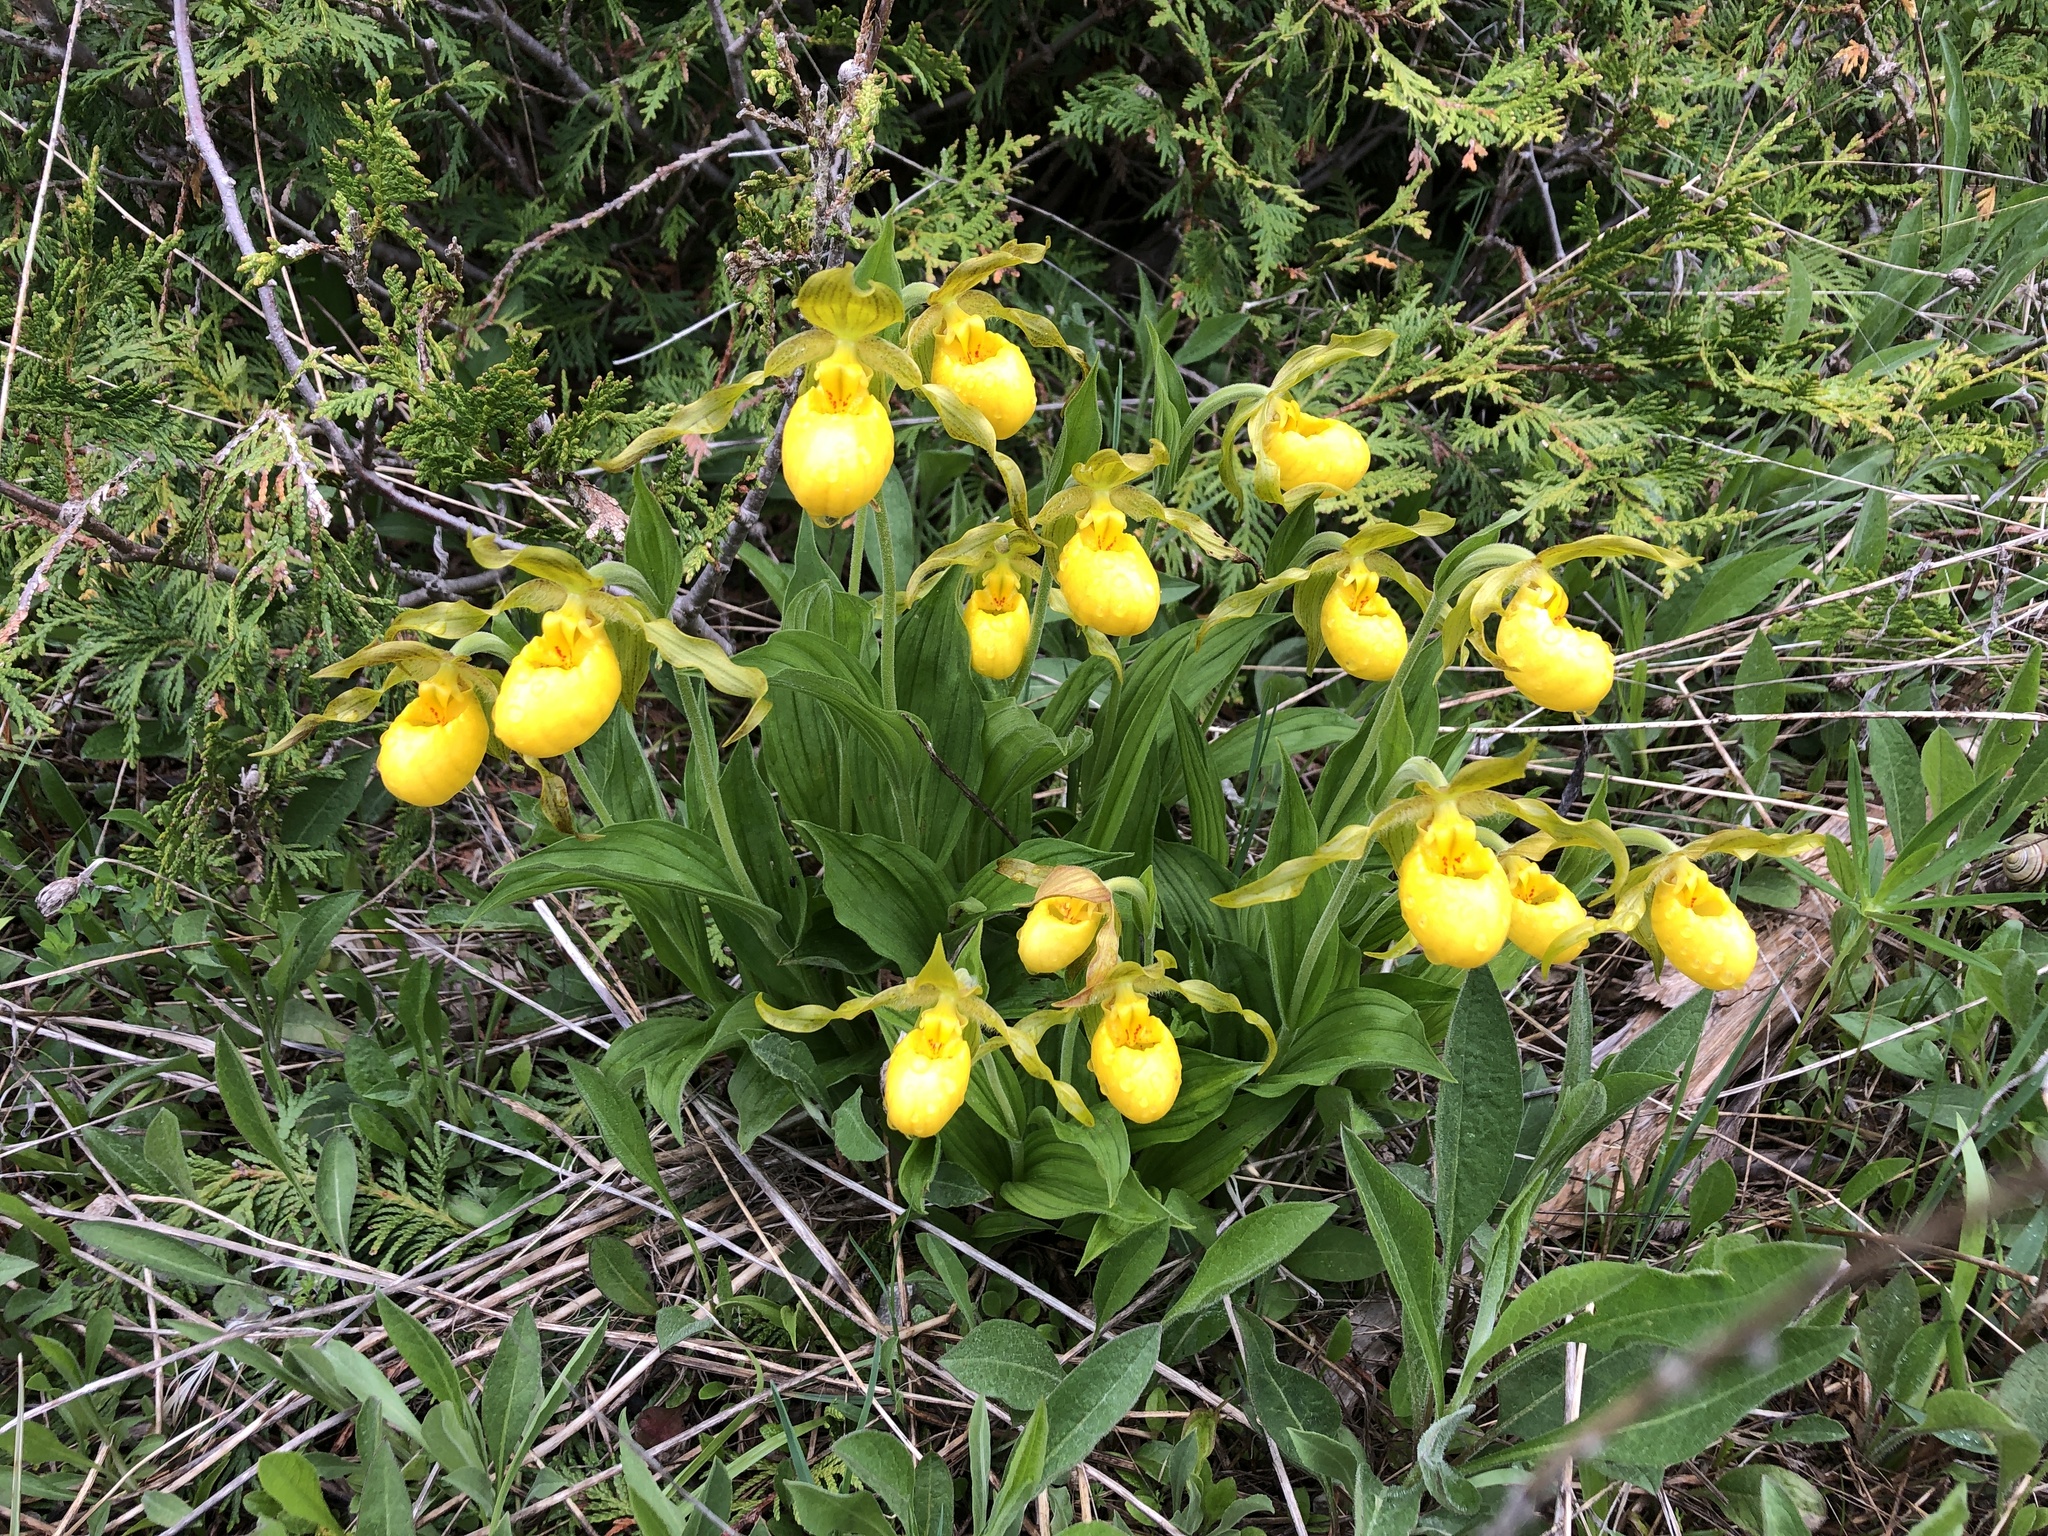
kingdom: Plantae
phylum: Tracheophyta
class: Liliopsida
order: Asparagales
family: Orchidaceae
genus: Cypripedium
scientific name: Cypripedium parviflorum
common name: American yellow lady's-slipper
